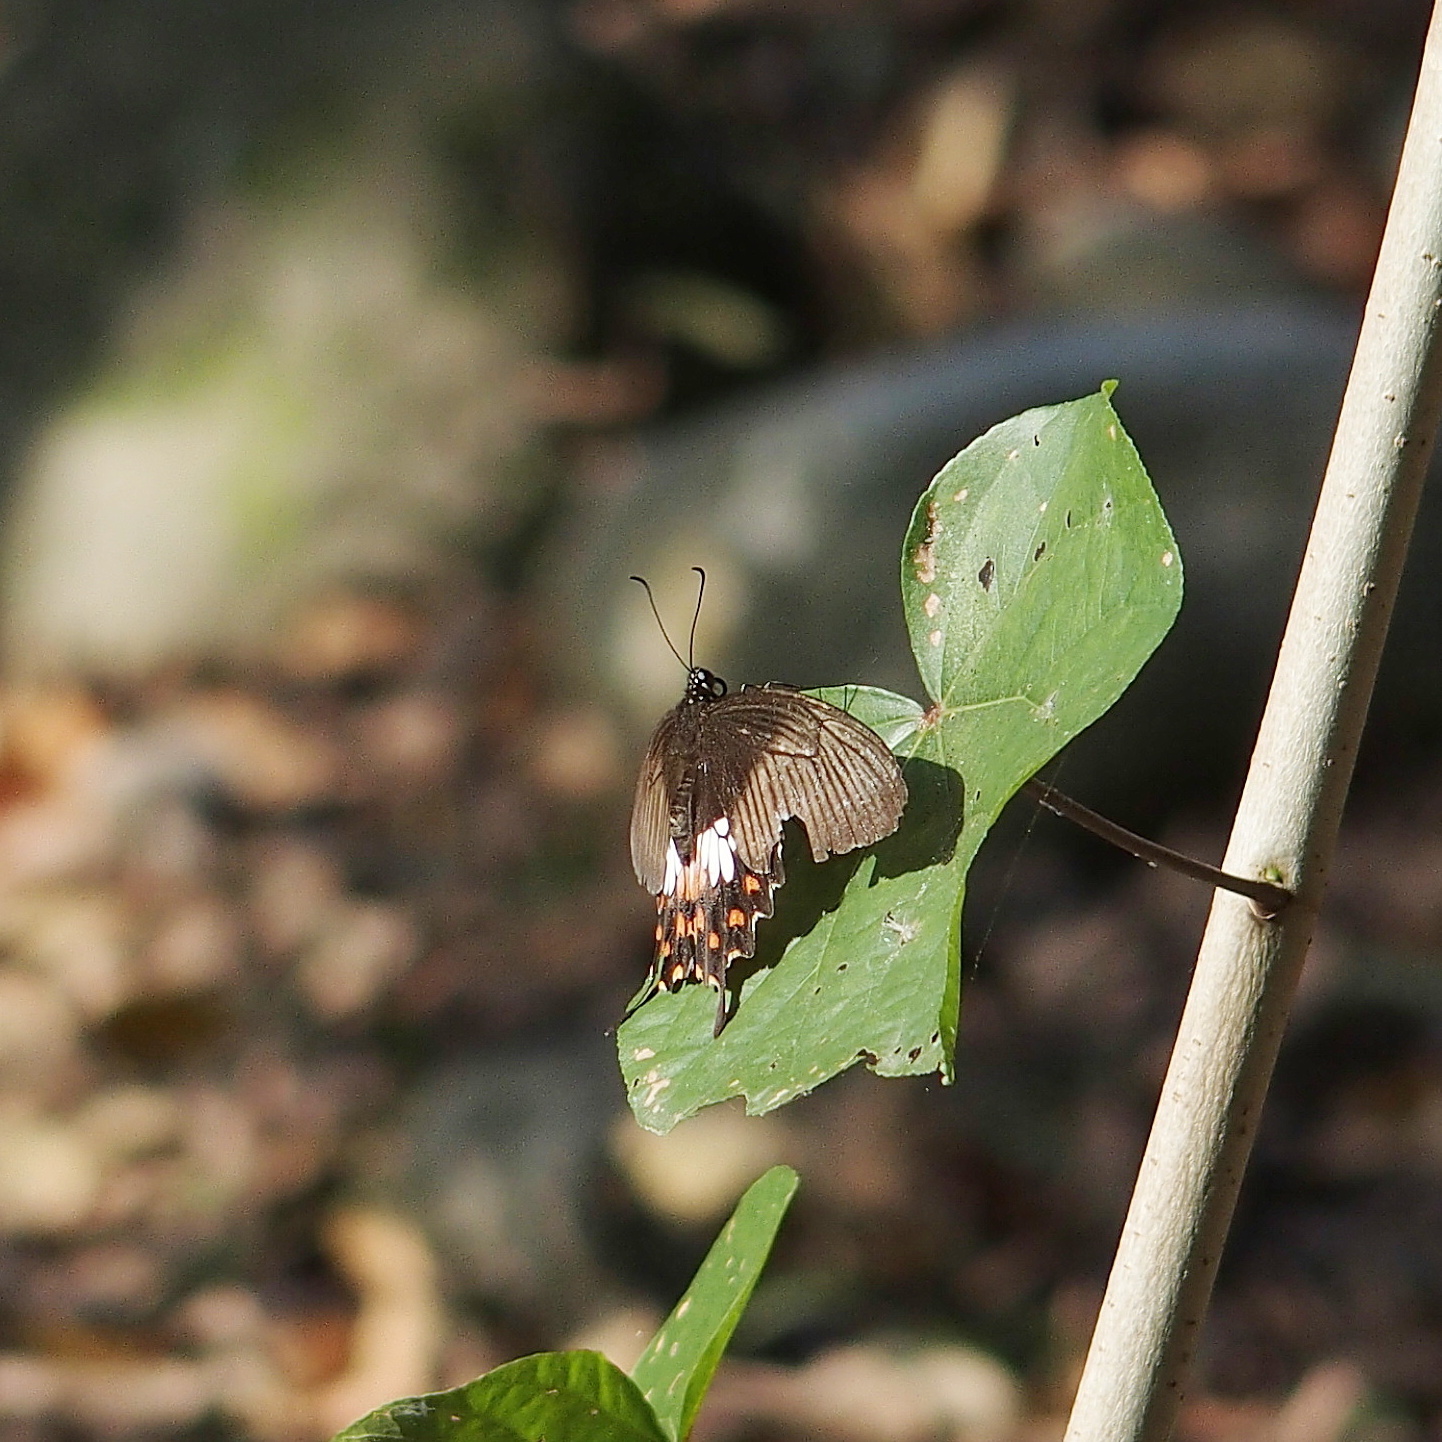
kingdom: Animalia
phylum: Arthropoda
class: Insecta
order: Lepidoptera
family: Papilionidae
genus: Papilio
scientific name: Papilio polytes
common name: Common mormon
